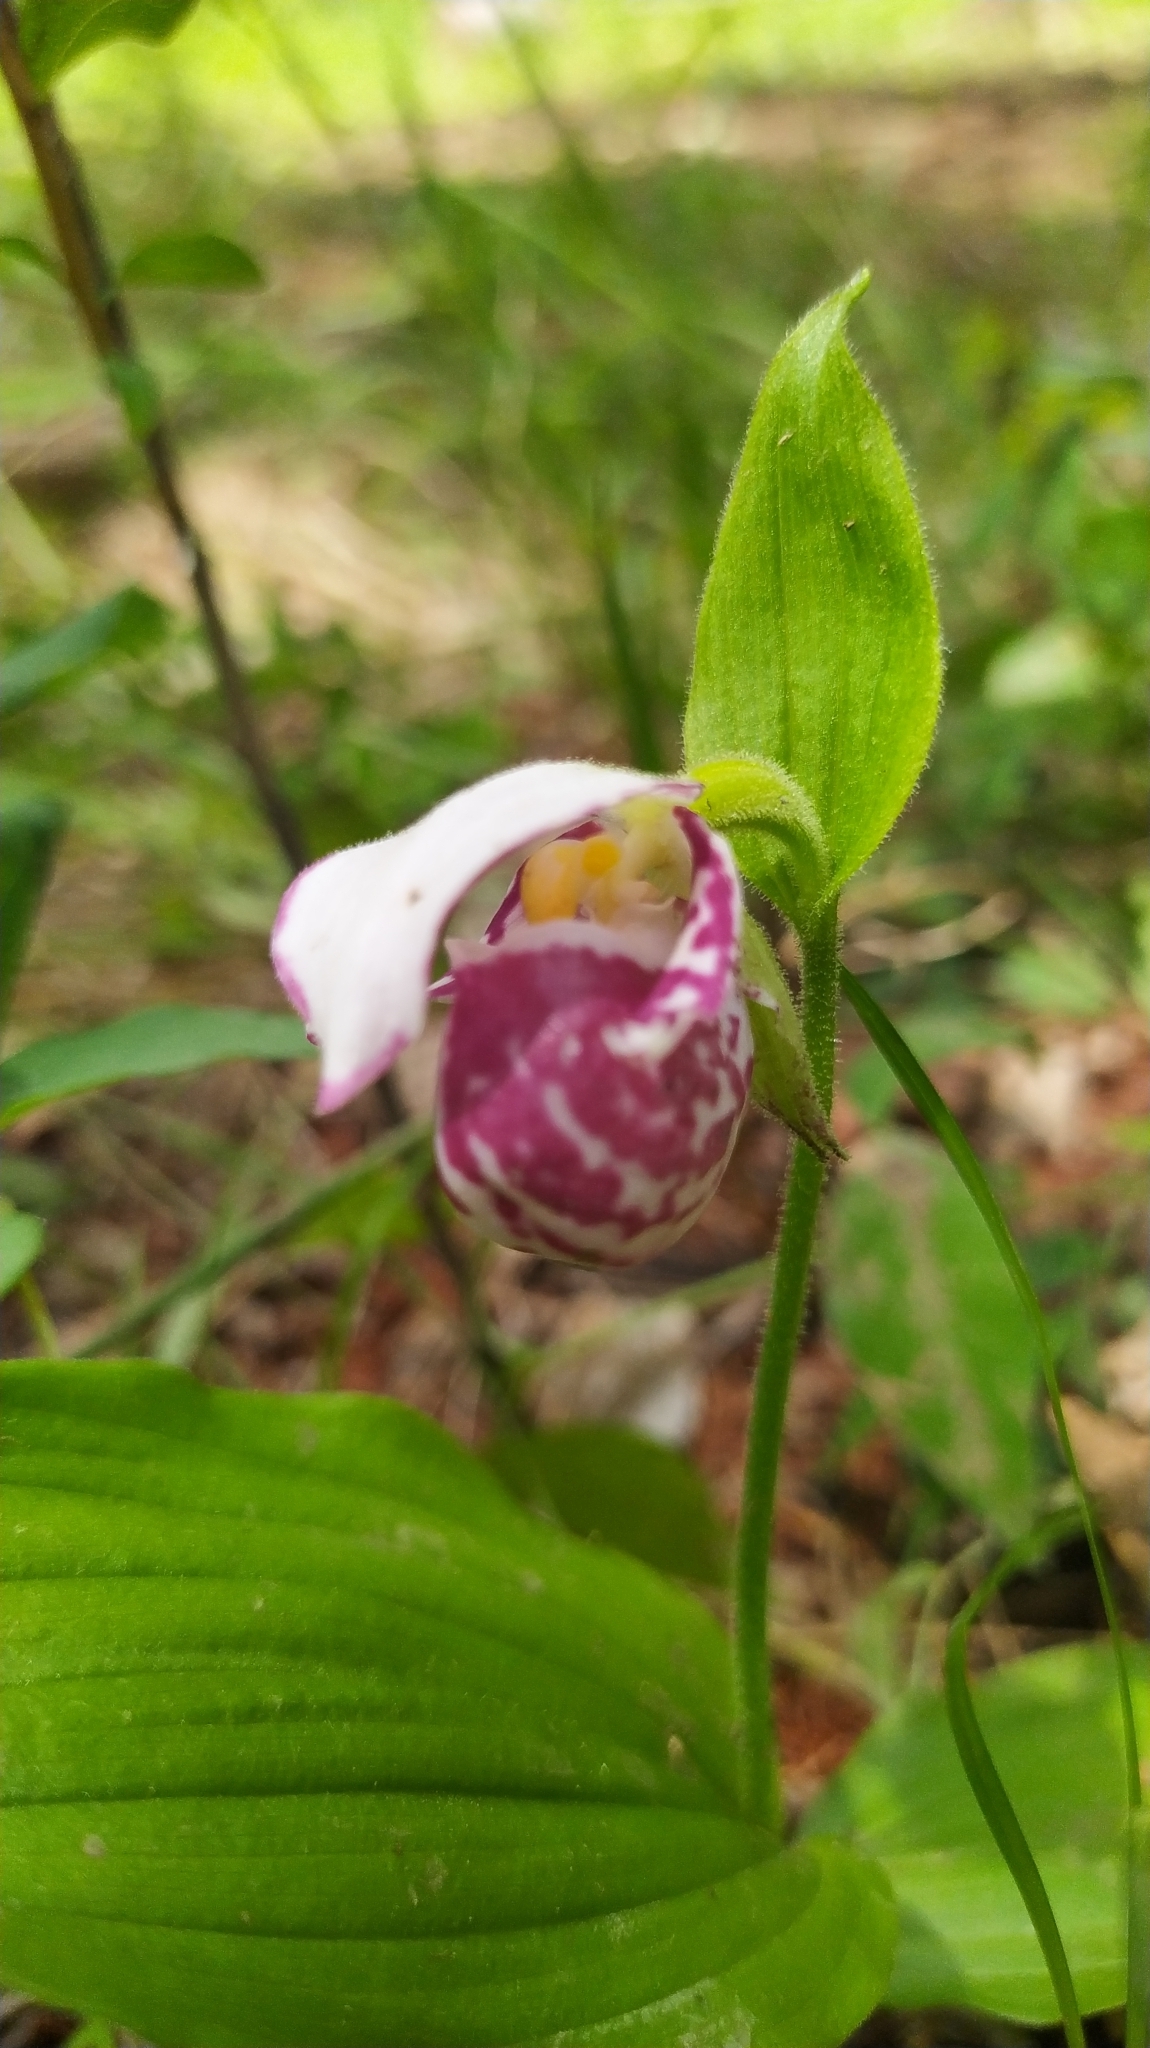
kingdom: Plantae
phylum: Tracheophyta
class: Liliopsida
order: Asparagales
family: Orchidaceae
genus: Cypripedium
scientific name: Cypripedium guttatum
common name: Pink lady slipper
